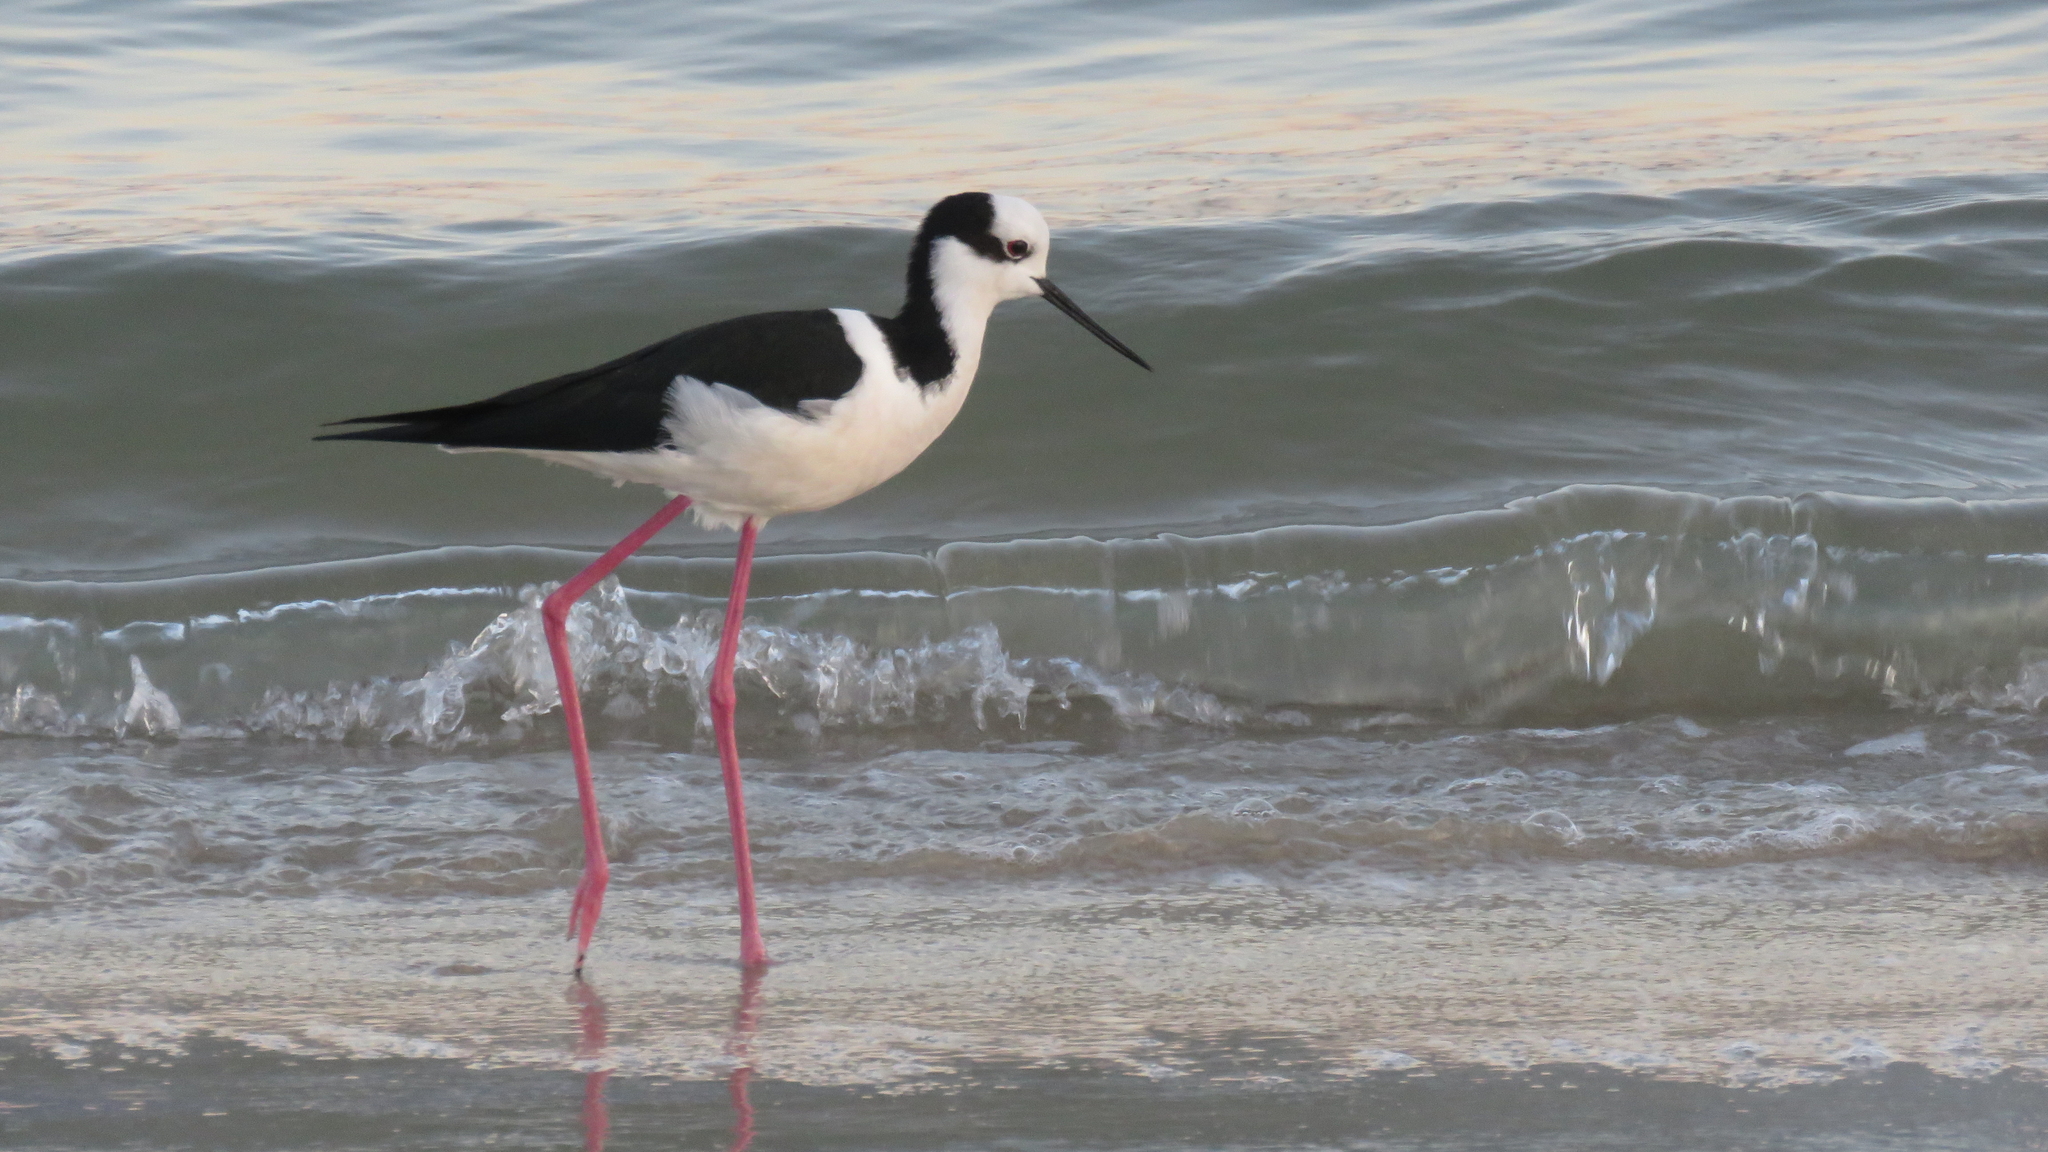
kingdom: Animalia
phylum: Chordata
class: Aves
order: Charadriiformes
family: Recurvirostridae
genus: Himantopus
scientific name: Himantopus mexicanus
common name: Black-necked stilt
